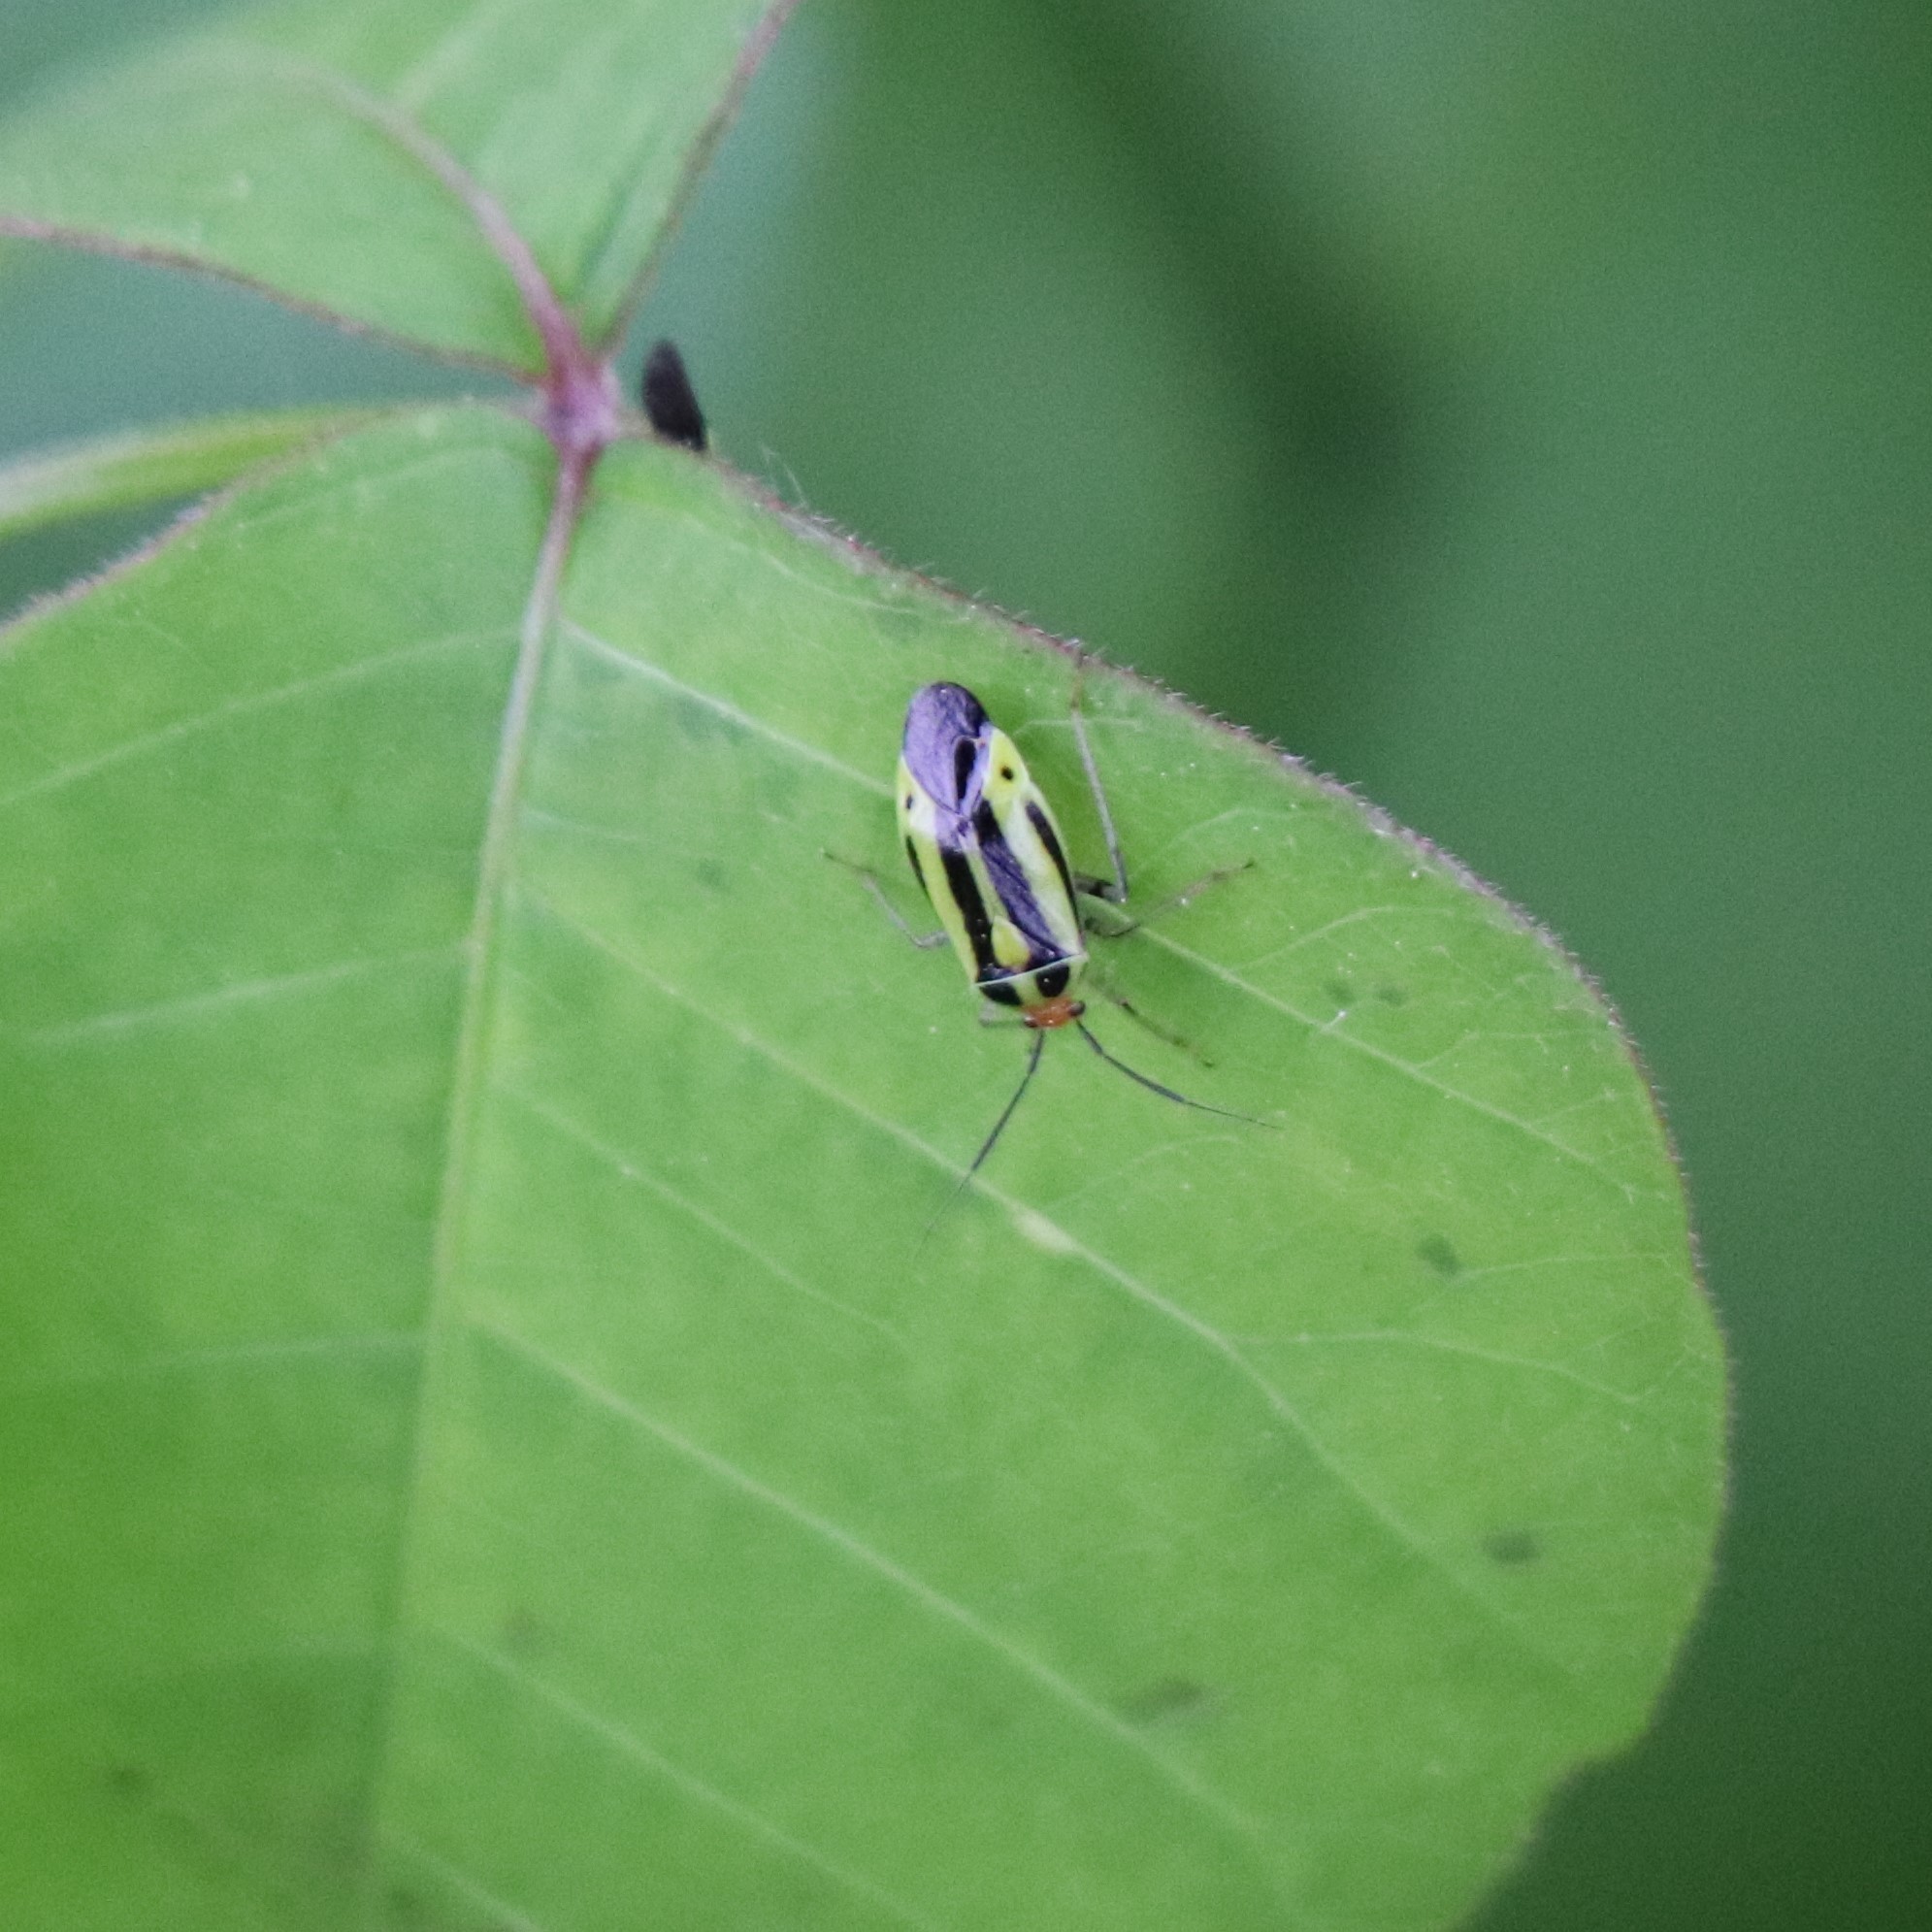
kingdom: Animalia
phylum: Arthropoda
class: Insecta
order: Hemiptera
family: Miridae
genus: Poecilocapsus
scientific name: Poecilocapsus lineatus
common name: Four-lined plant bug
